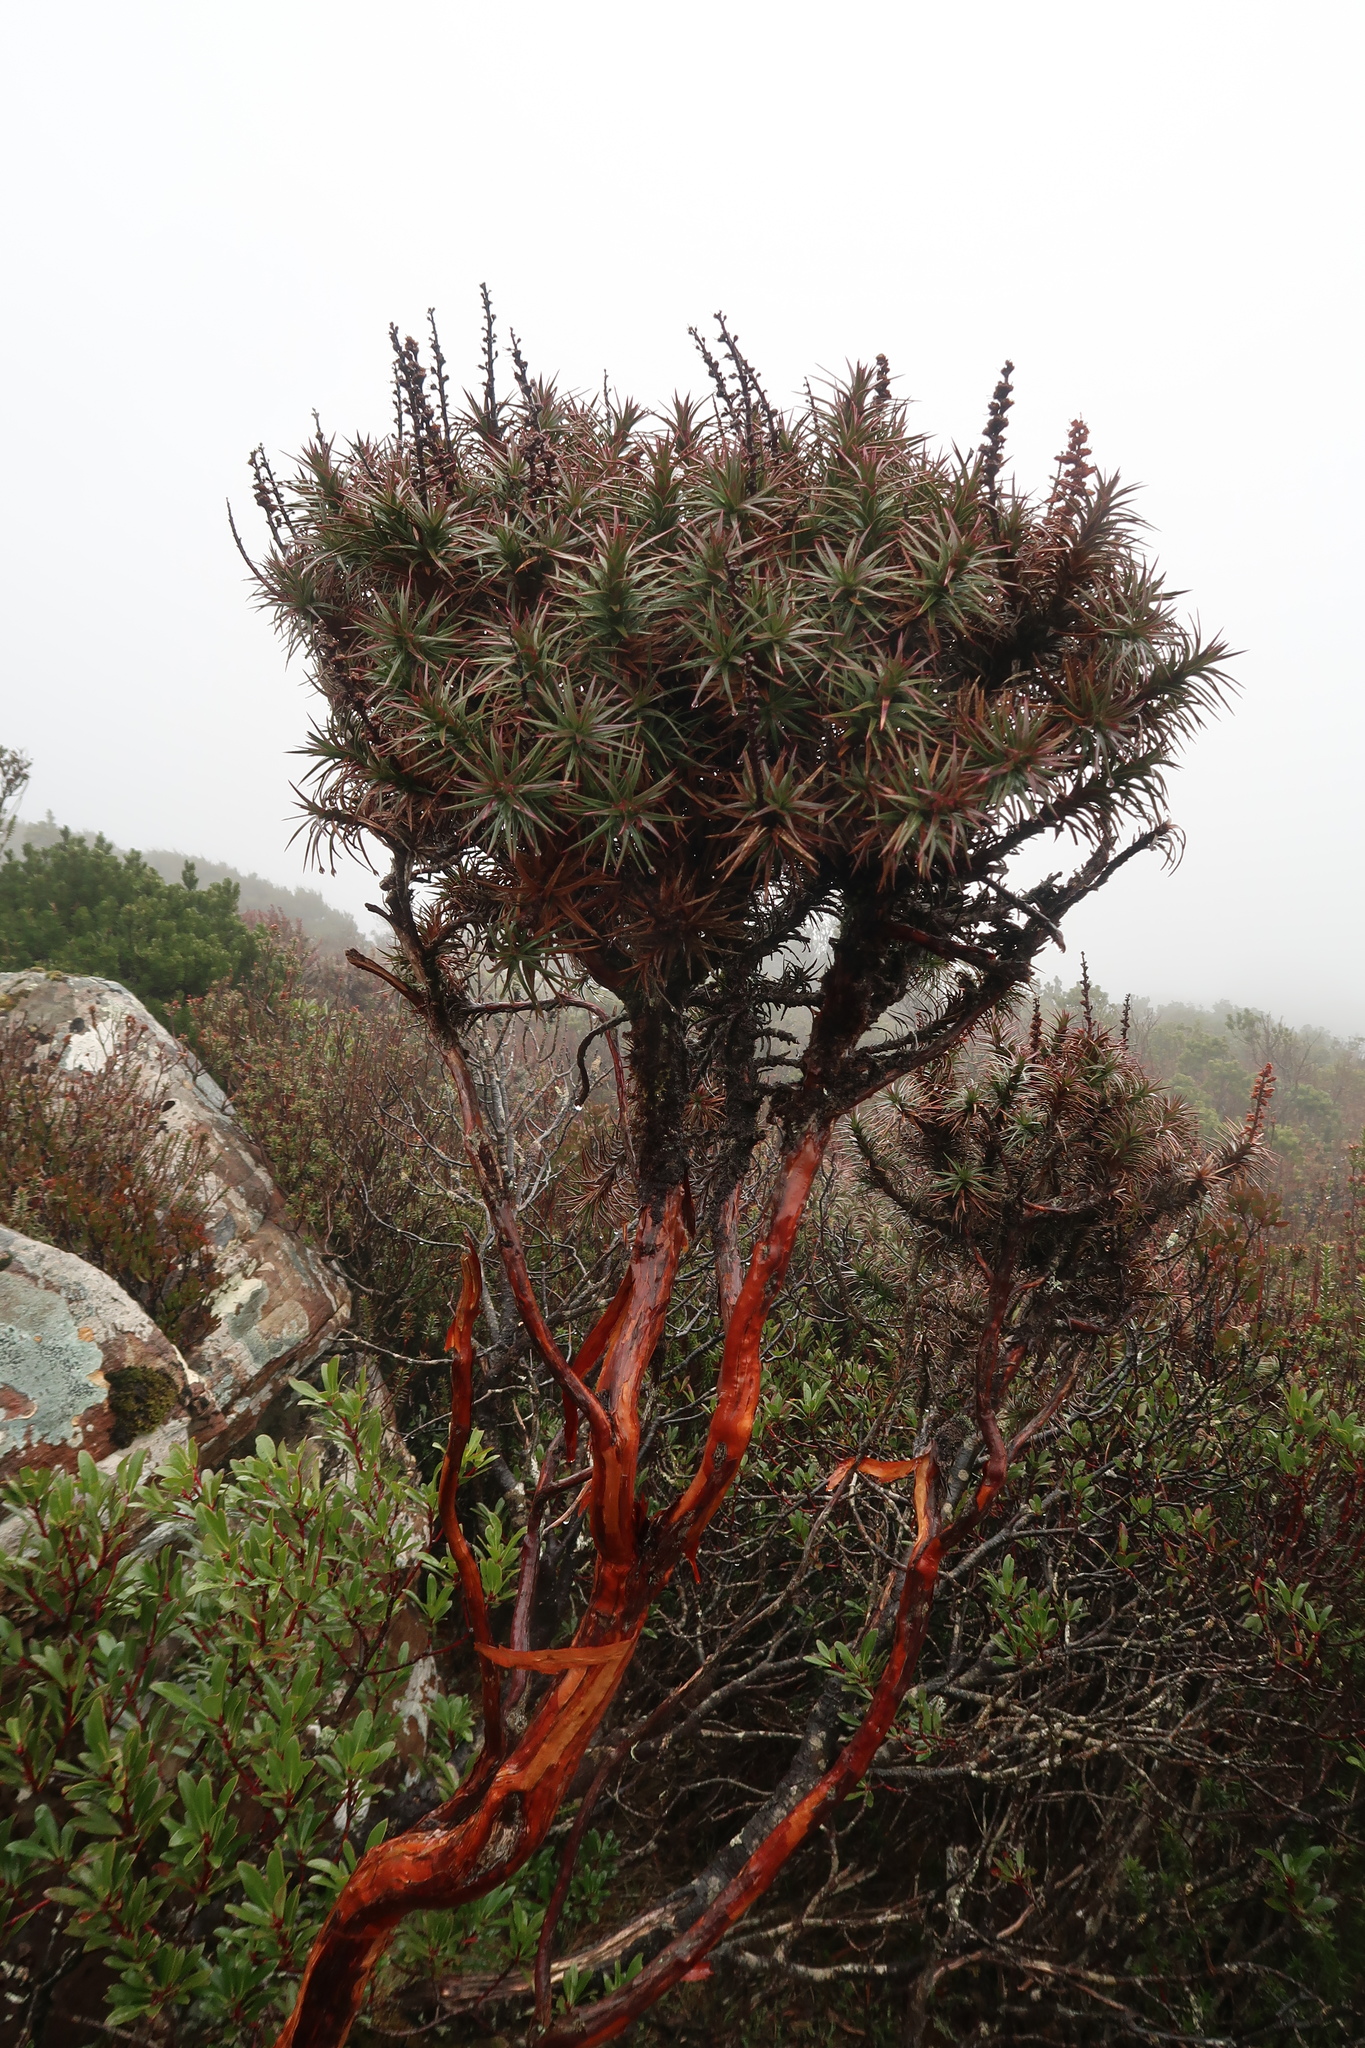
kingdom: Plantae
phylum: Tracheophyta
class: Magnoliopsida
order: Ericales
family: Ericaceae
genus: Dracophyllum
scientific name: Dracophyllum persistentifolium
